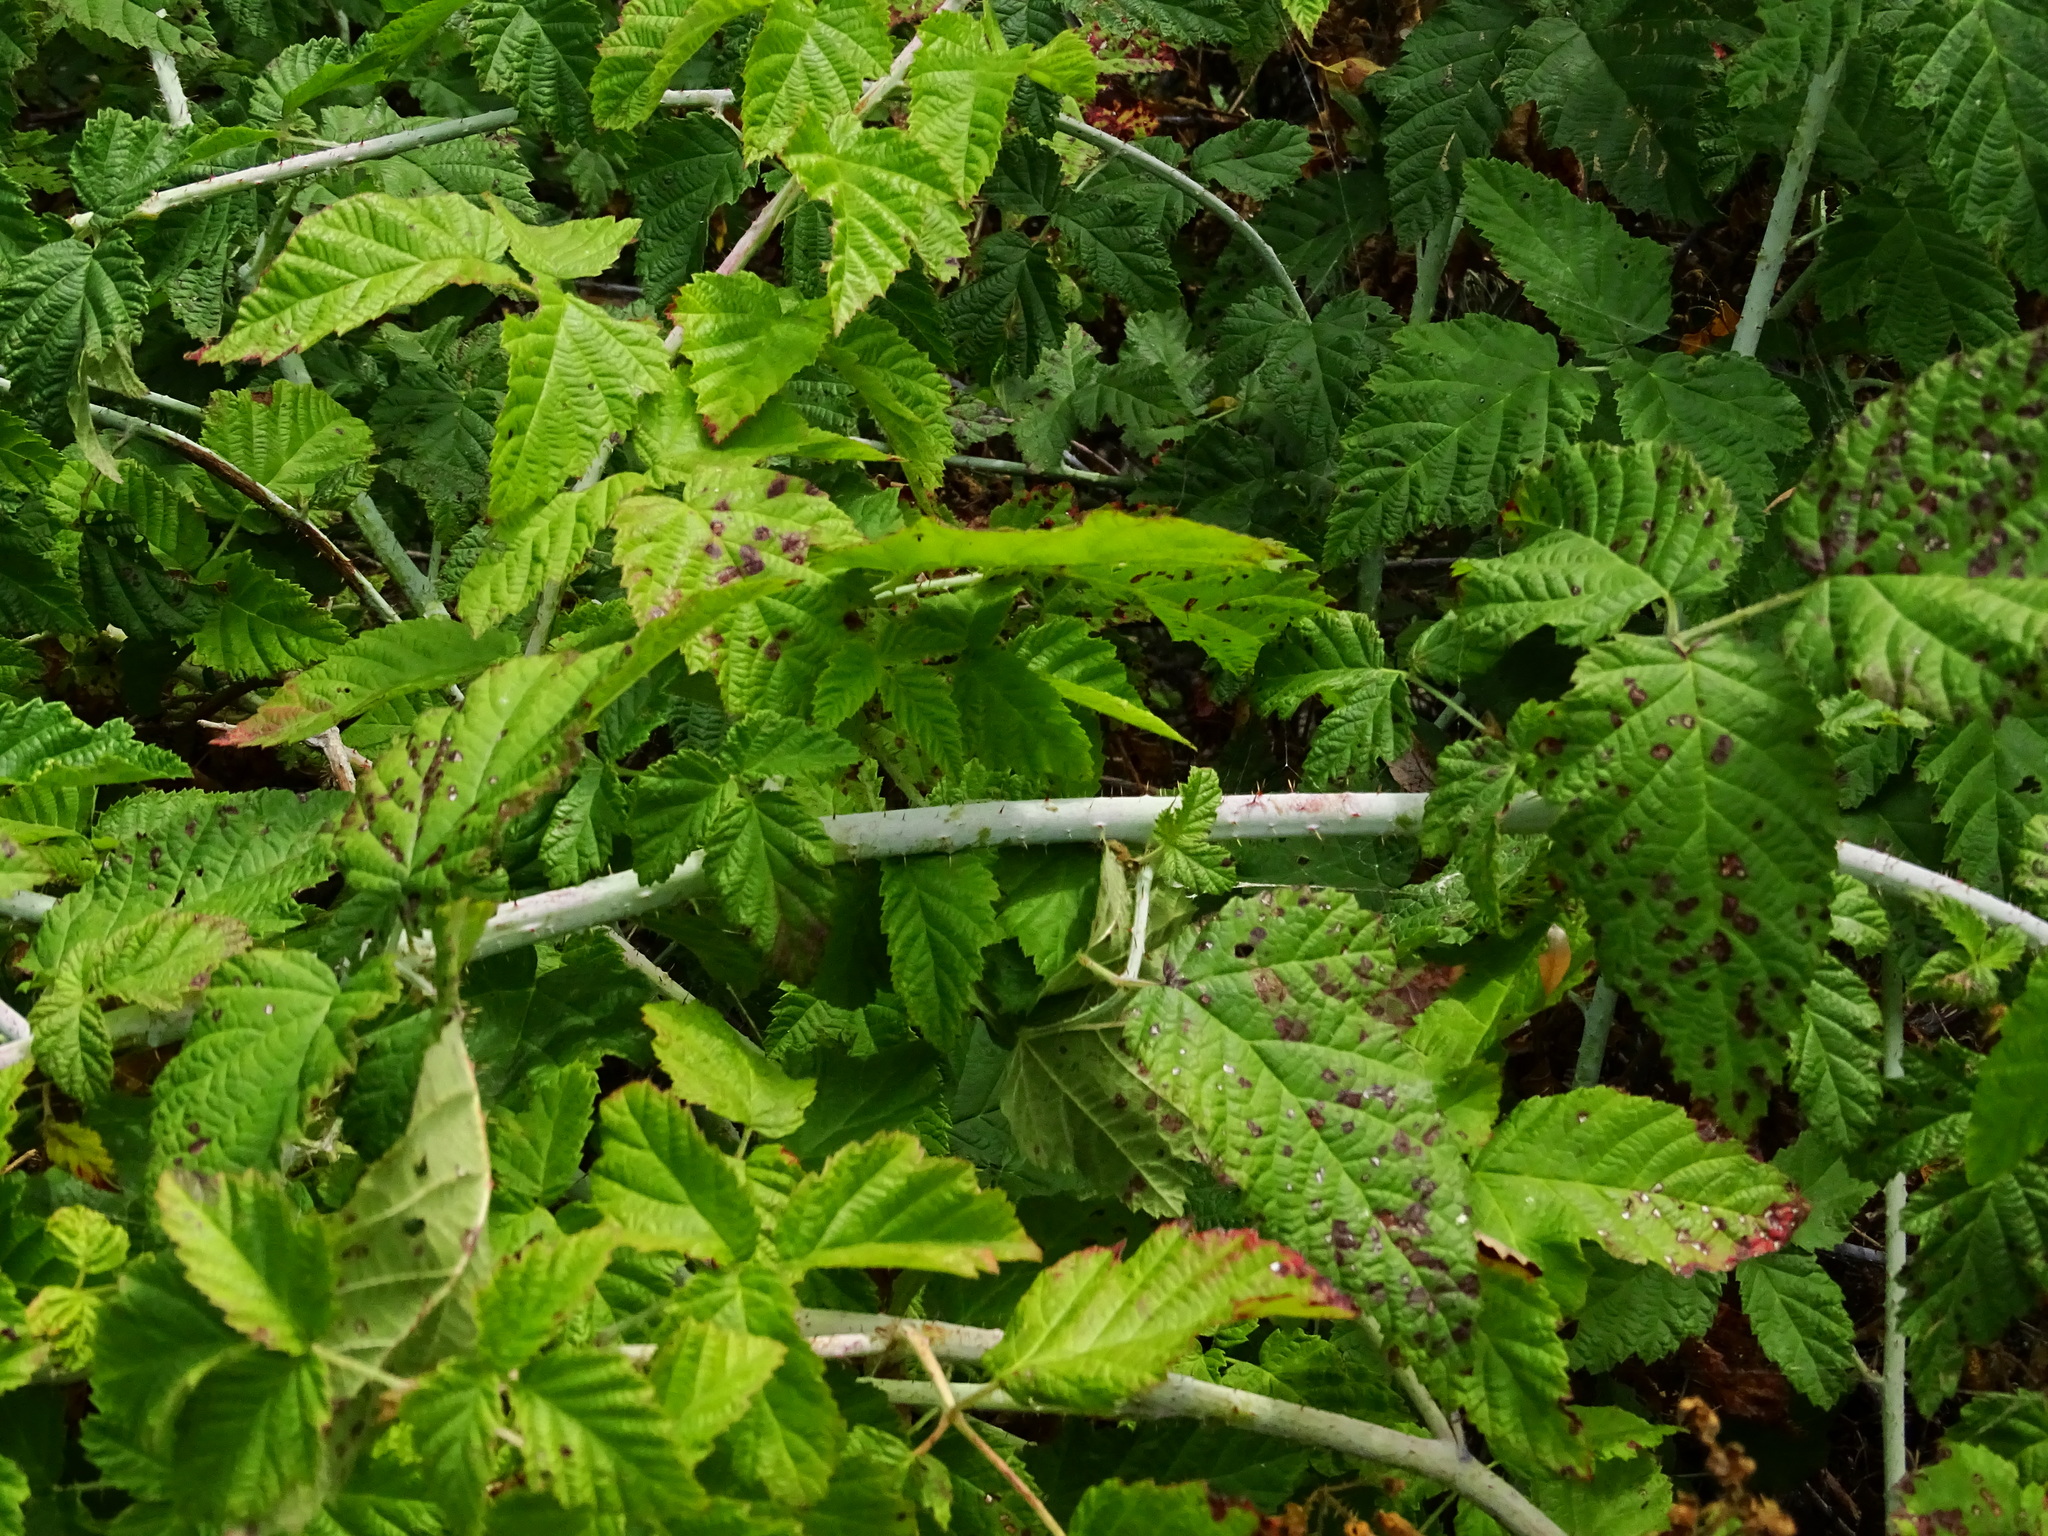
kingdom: Plantae
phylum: Tracheophyta
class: Magnoliopsida
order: Rosales
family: Rosaceae
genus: Rubus
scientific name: Rubus ursinus
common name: Pacific blackberry
